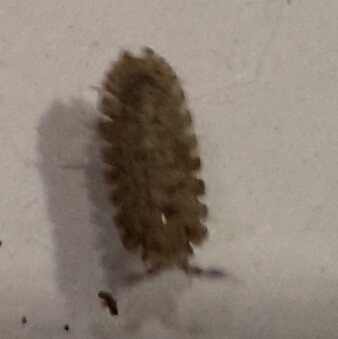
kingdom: Animalia
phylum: Arthropoda
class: Malacostraca
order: Isopoda
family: Detonidae
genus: Armadilloniscus
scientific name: Armadilloniscus coronacapitalis
